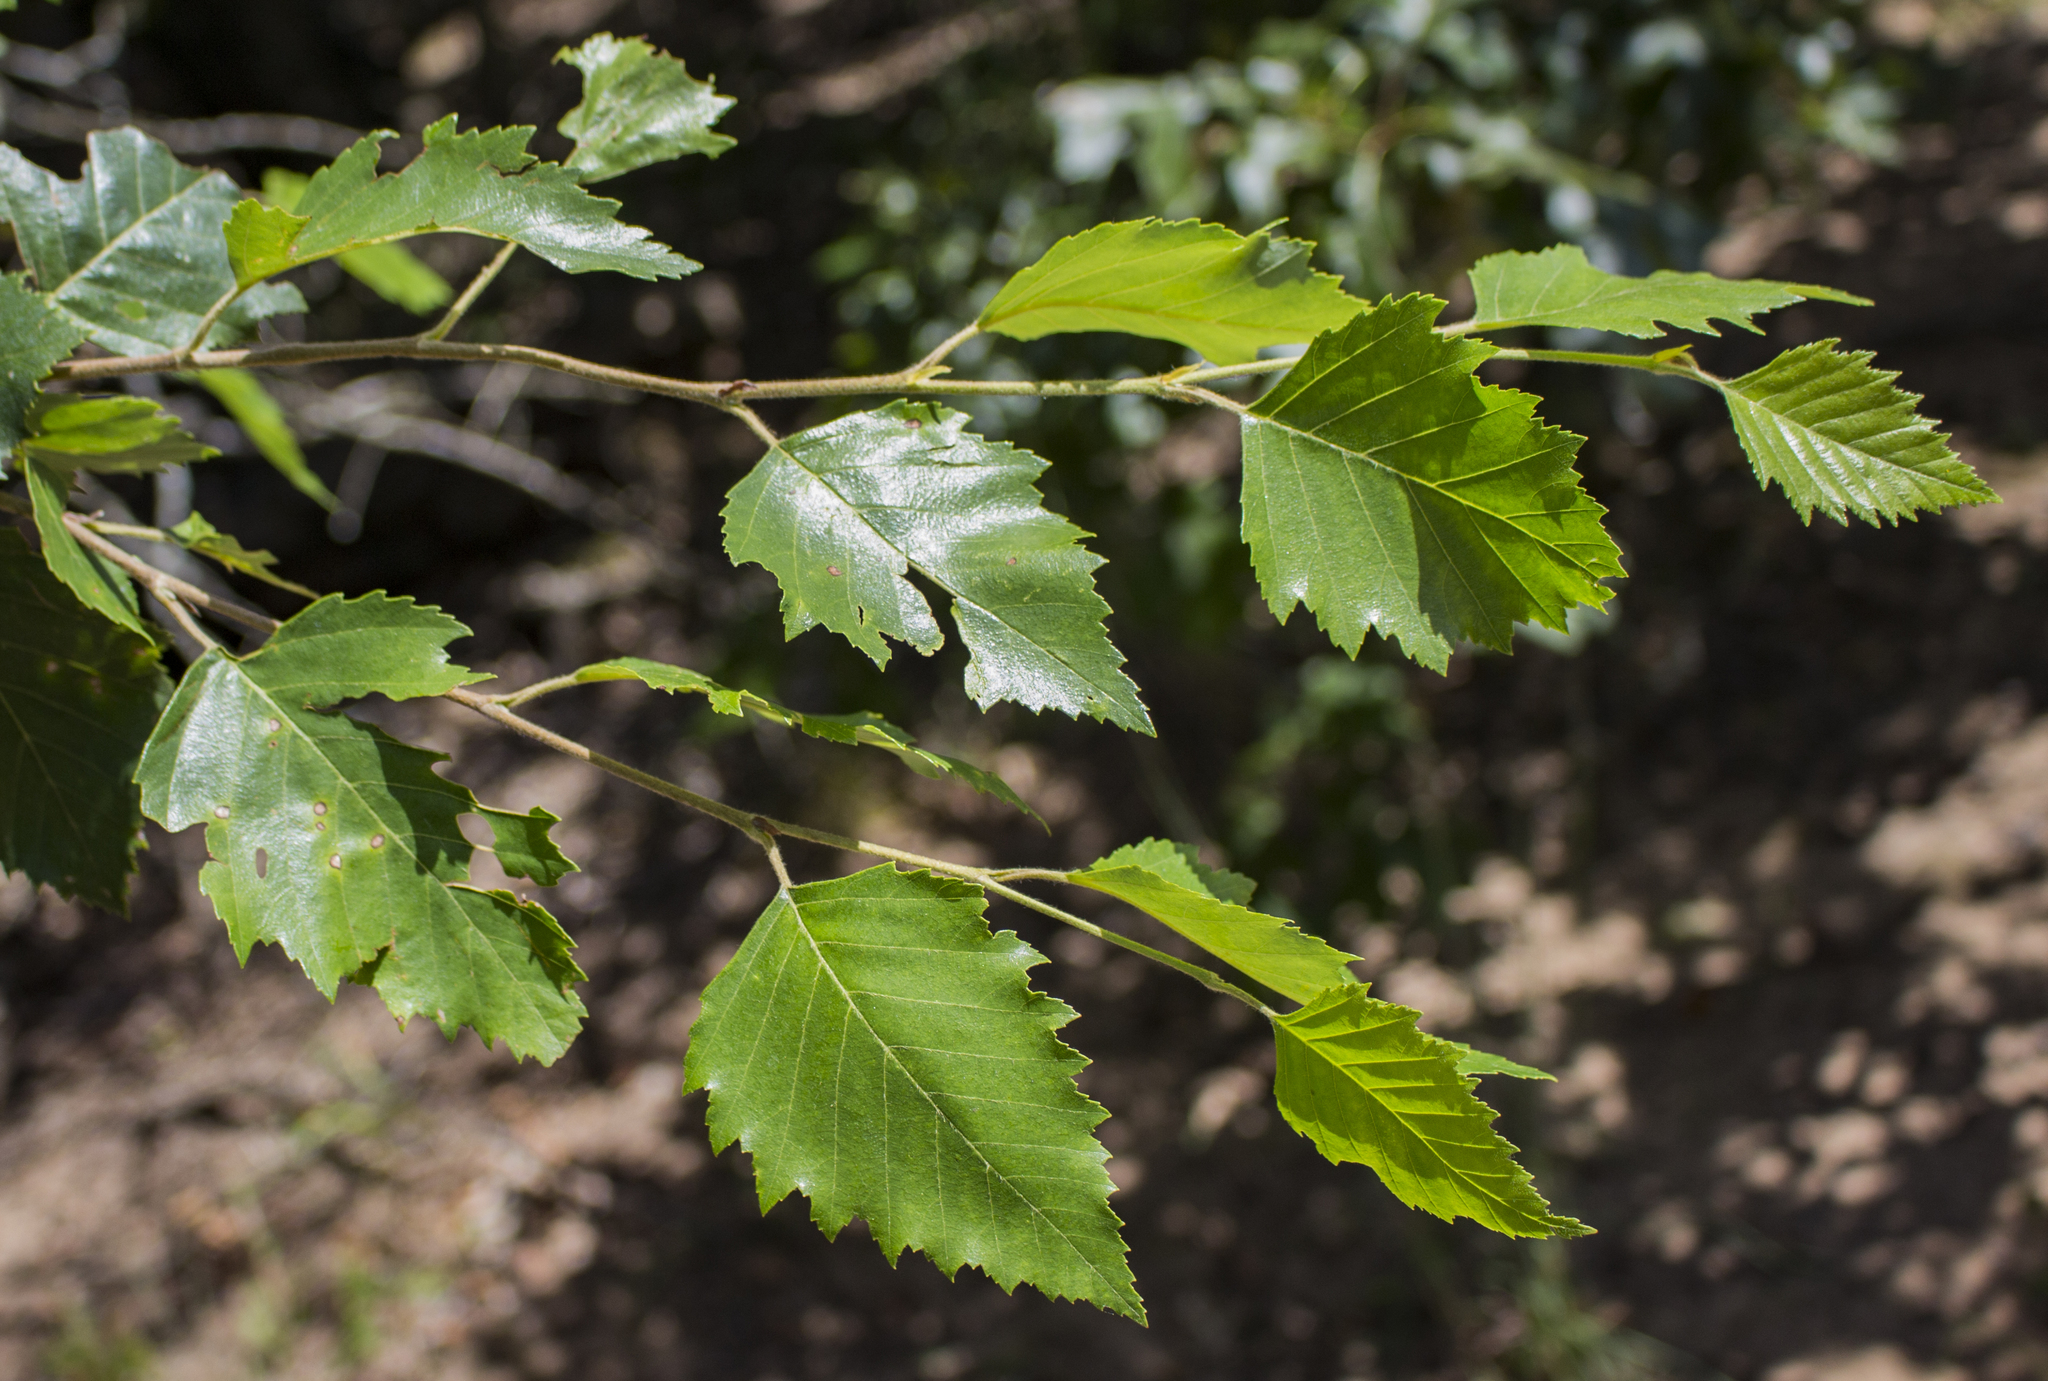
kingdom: Plantae
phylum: Tracheophyta
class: Magnoliopsida
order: Fagales
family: Betulaceae
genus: Betula
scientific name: Betula nigra
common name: Black birch
